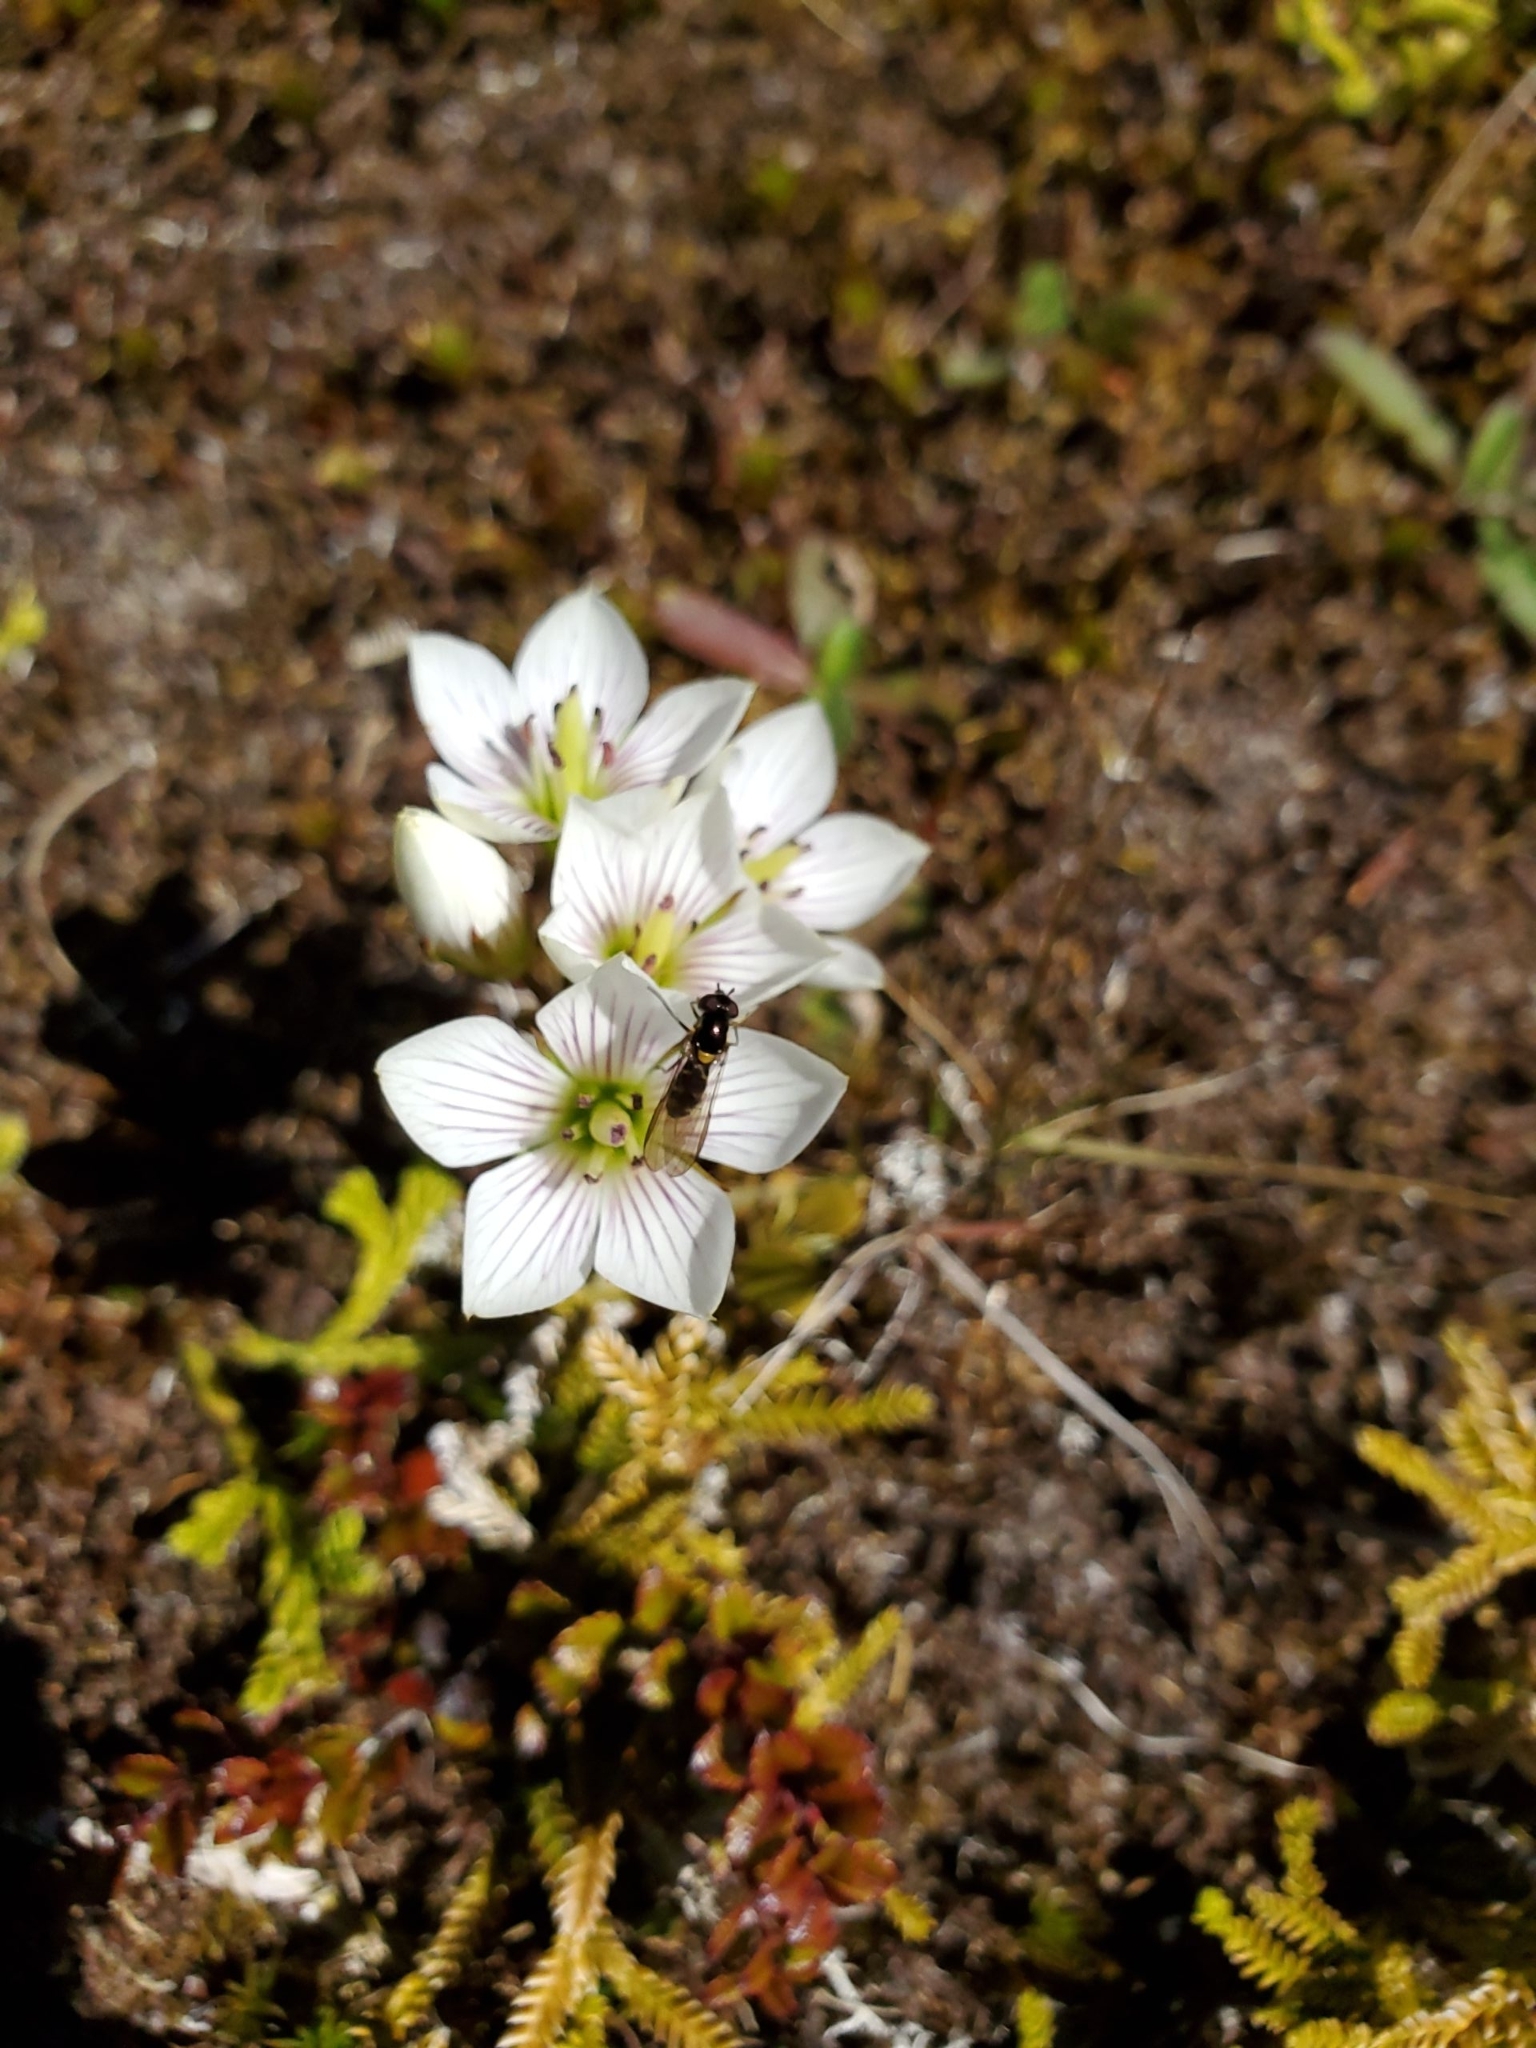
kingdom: Plantae
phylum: Tracheophyta
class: Magnoliopsida
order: Gentianales
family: Gentianaceae
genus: Gentianella
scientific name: Gentianella montana
